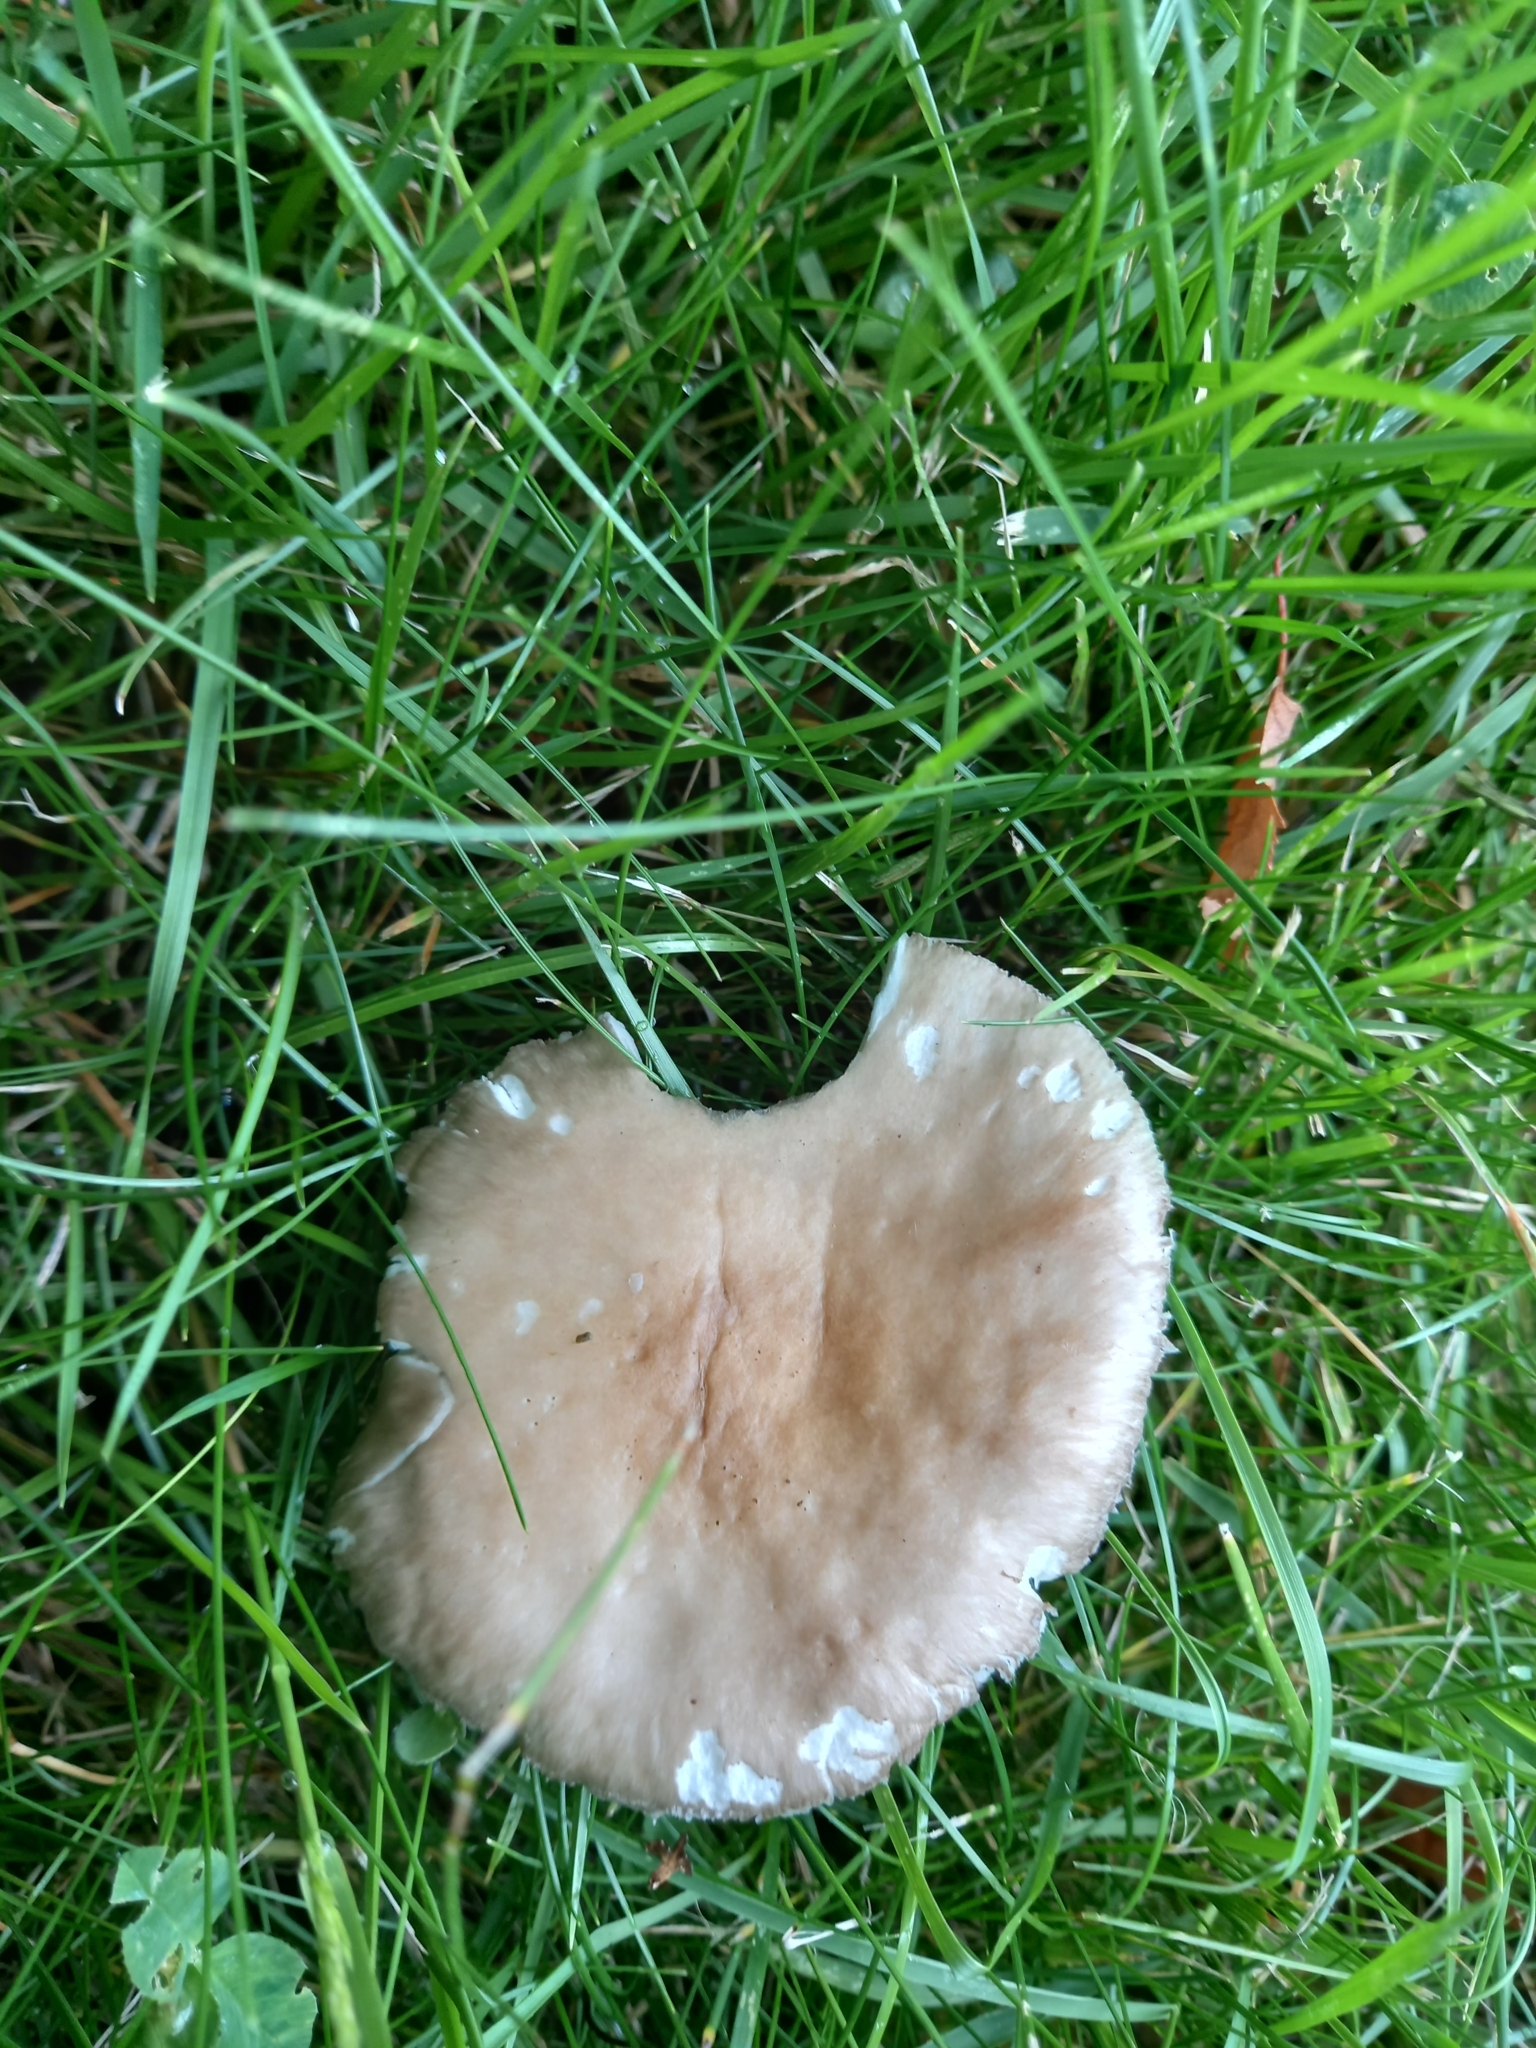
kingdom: Fungi
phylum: Basidiomycota
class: Agaricomycetes
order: Agaricales
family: Amanitaceae
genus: Amanita
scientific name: Amanita excelsa
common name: European false blusher
